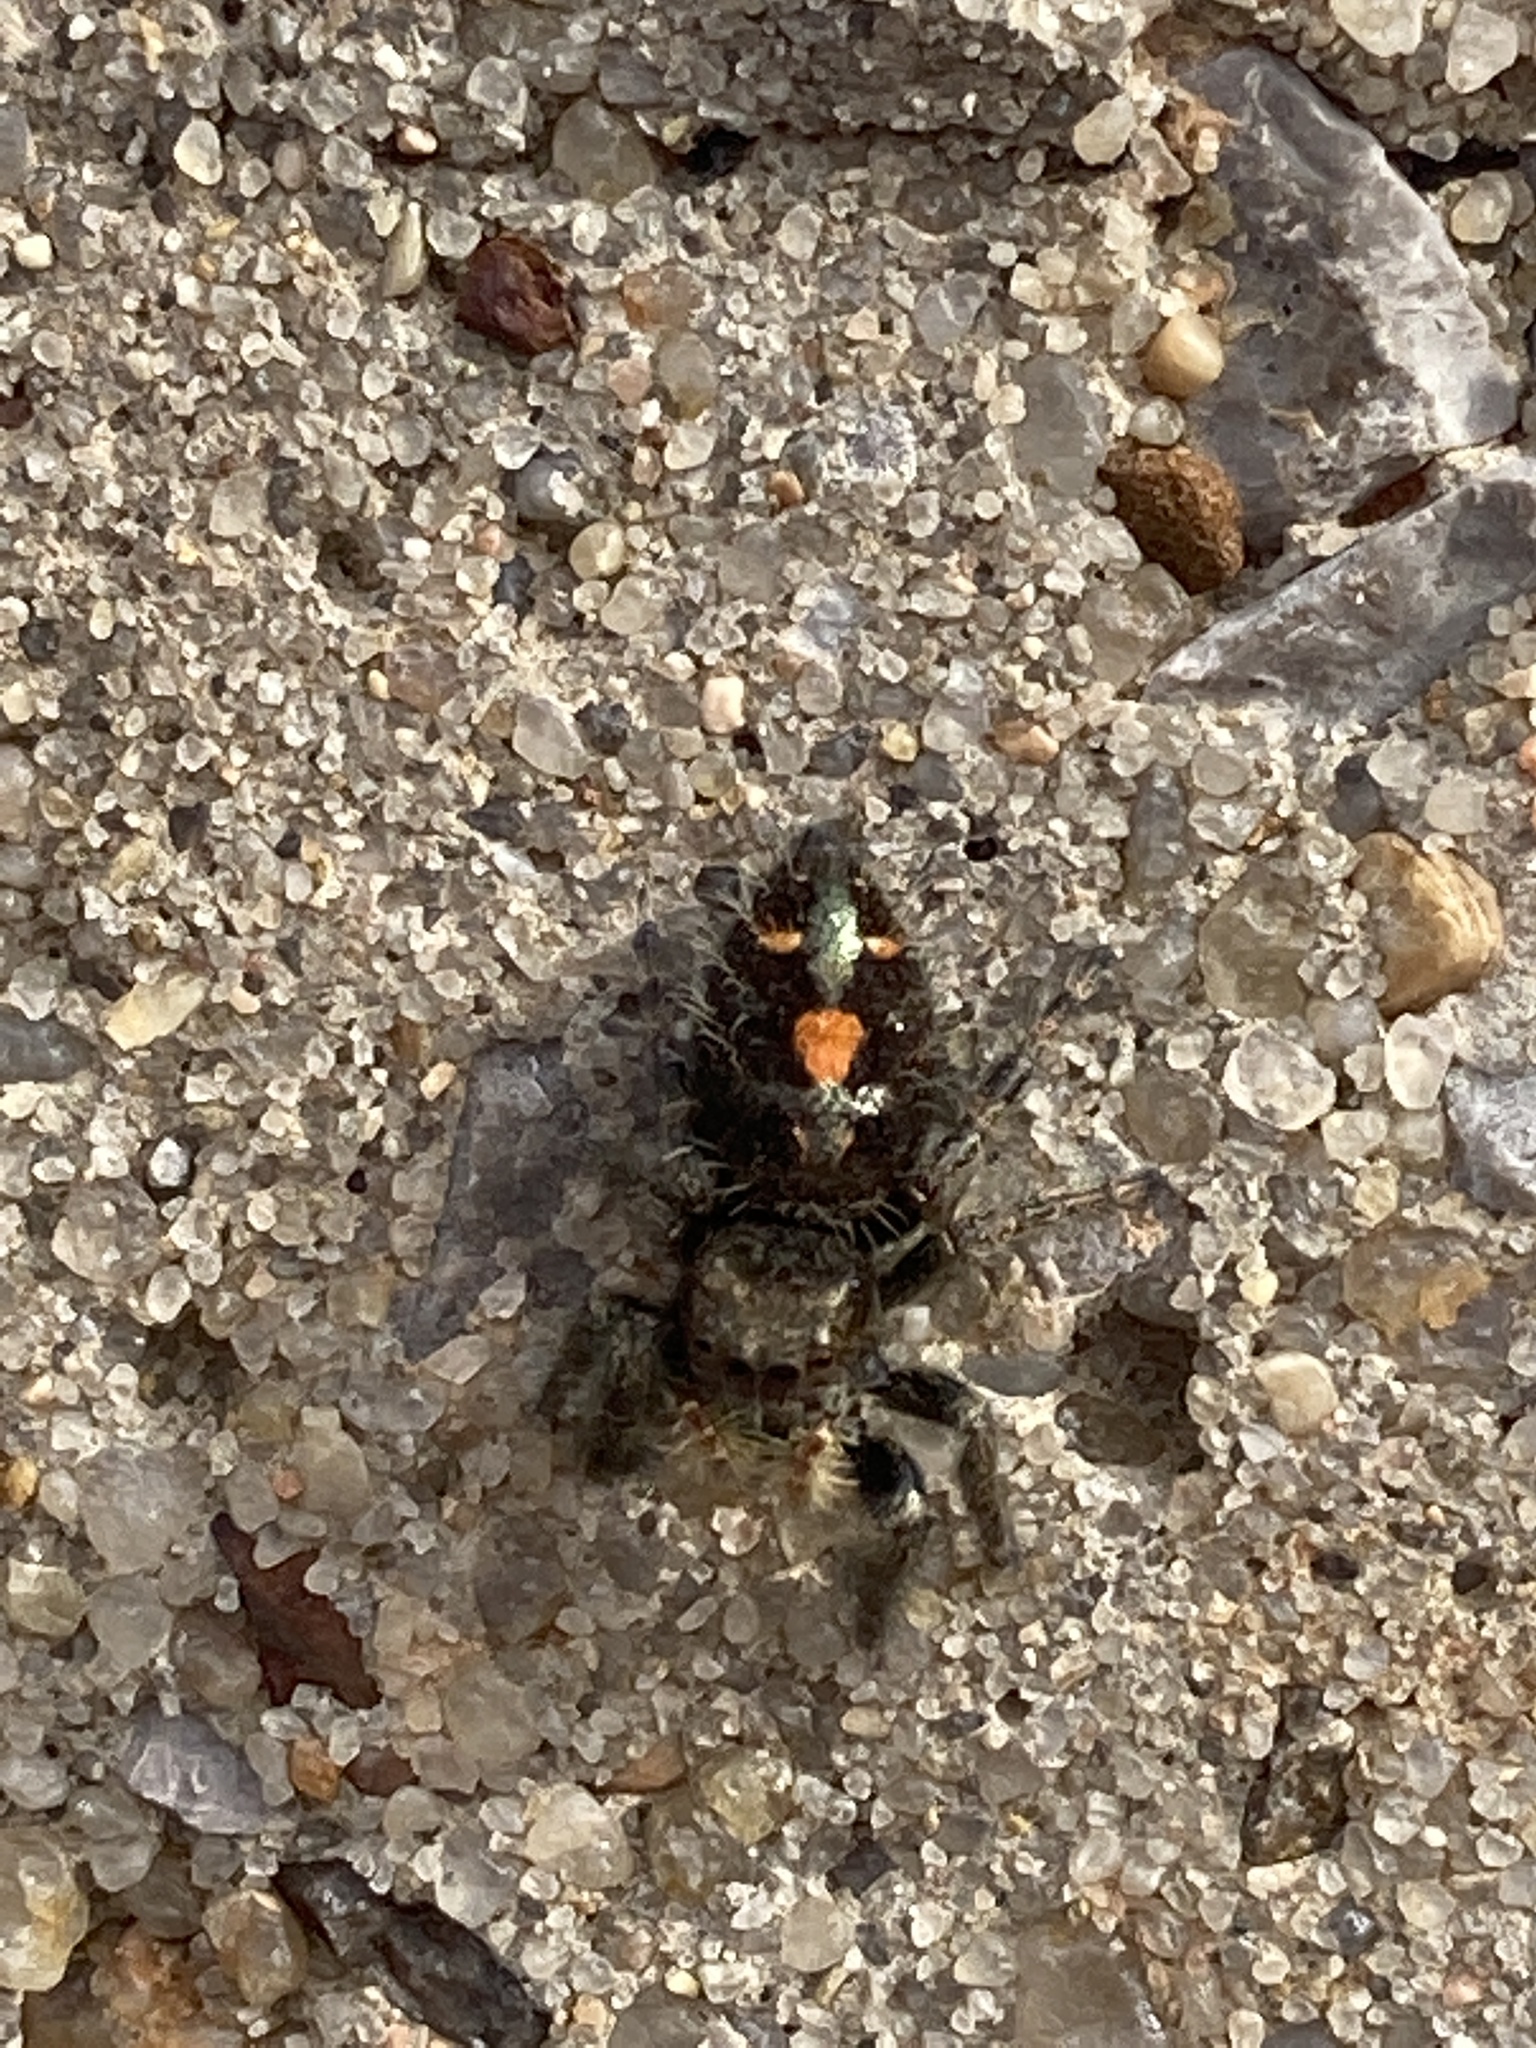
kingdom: Animalia
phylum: Arthropoda
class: Arachnida
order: Araneae
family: Salticidae
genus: Phidippus
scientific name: Phidippus audax
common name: Bold jumper
